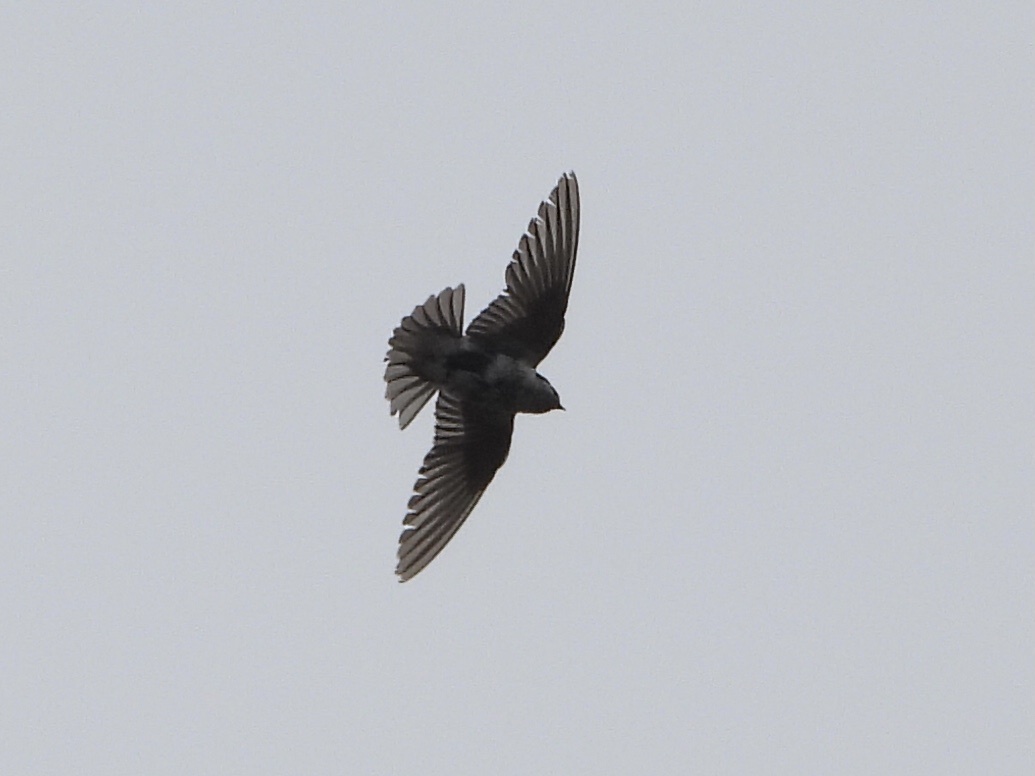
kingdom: Animalia
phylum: Chordata
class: Aves
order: Passeriformes
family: Hirundinidae
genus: Tachycineta
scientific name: Tachycineta thalassina
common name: Violet-green swallow
